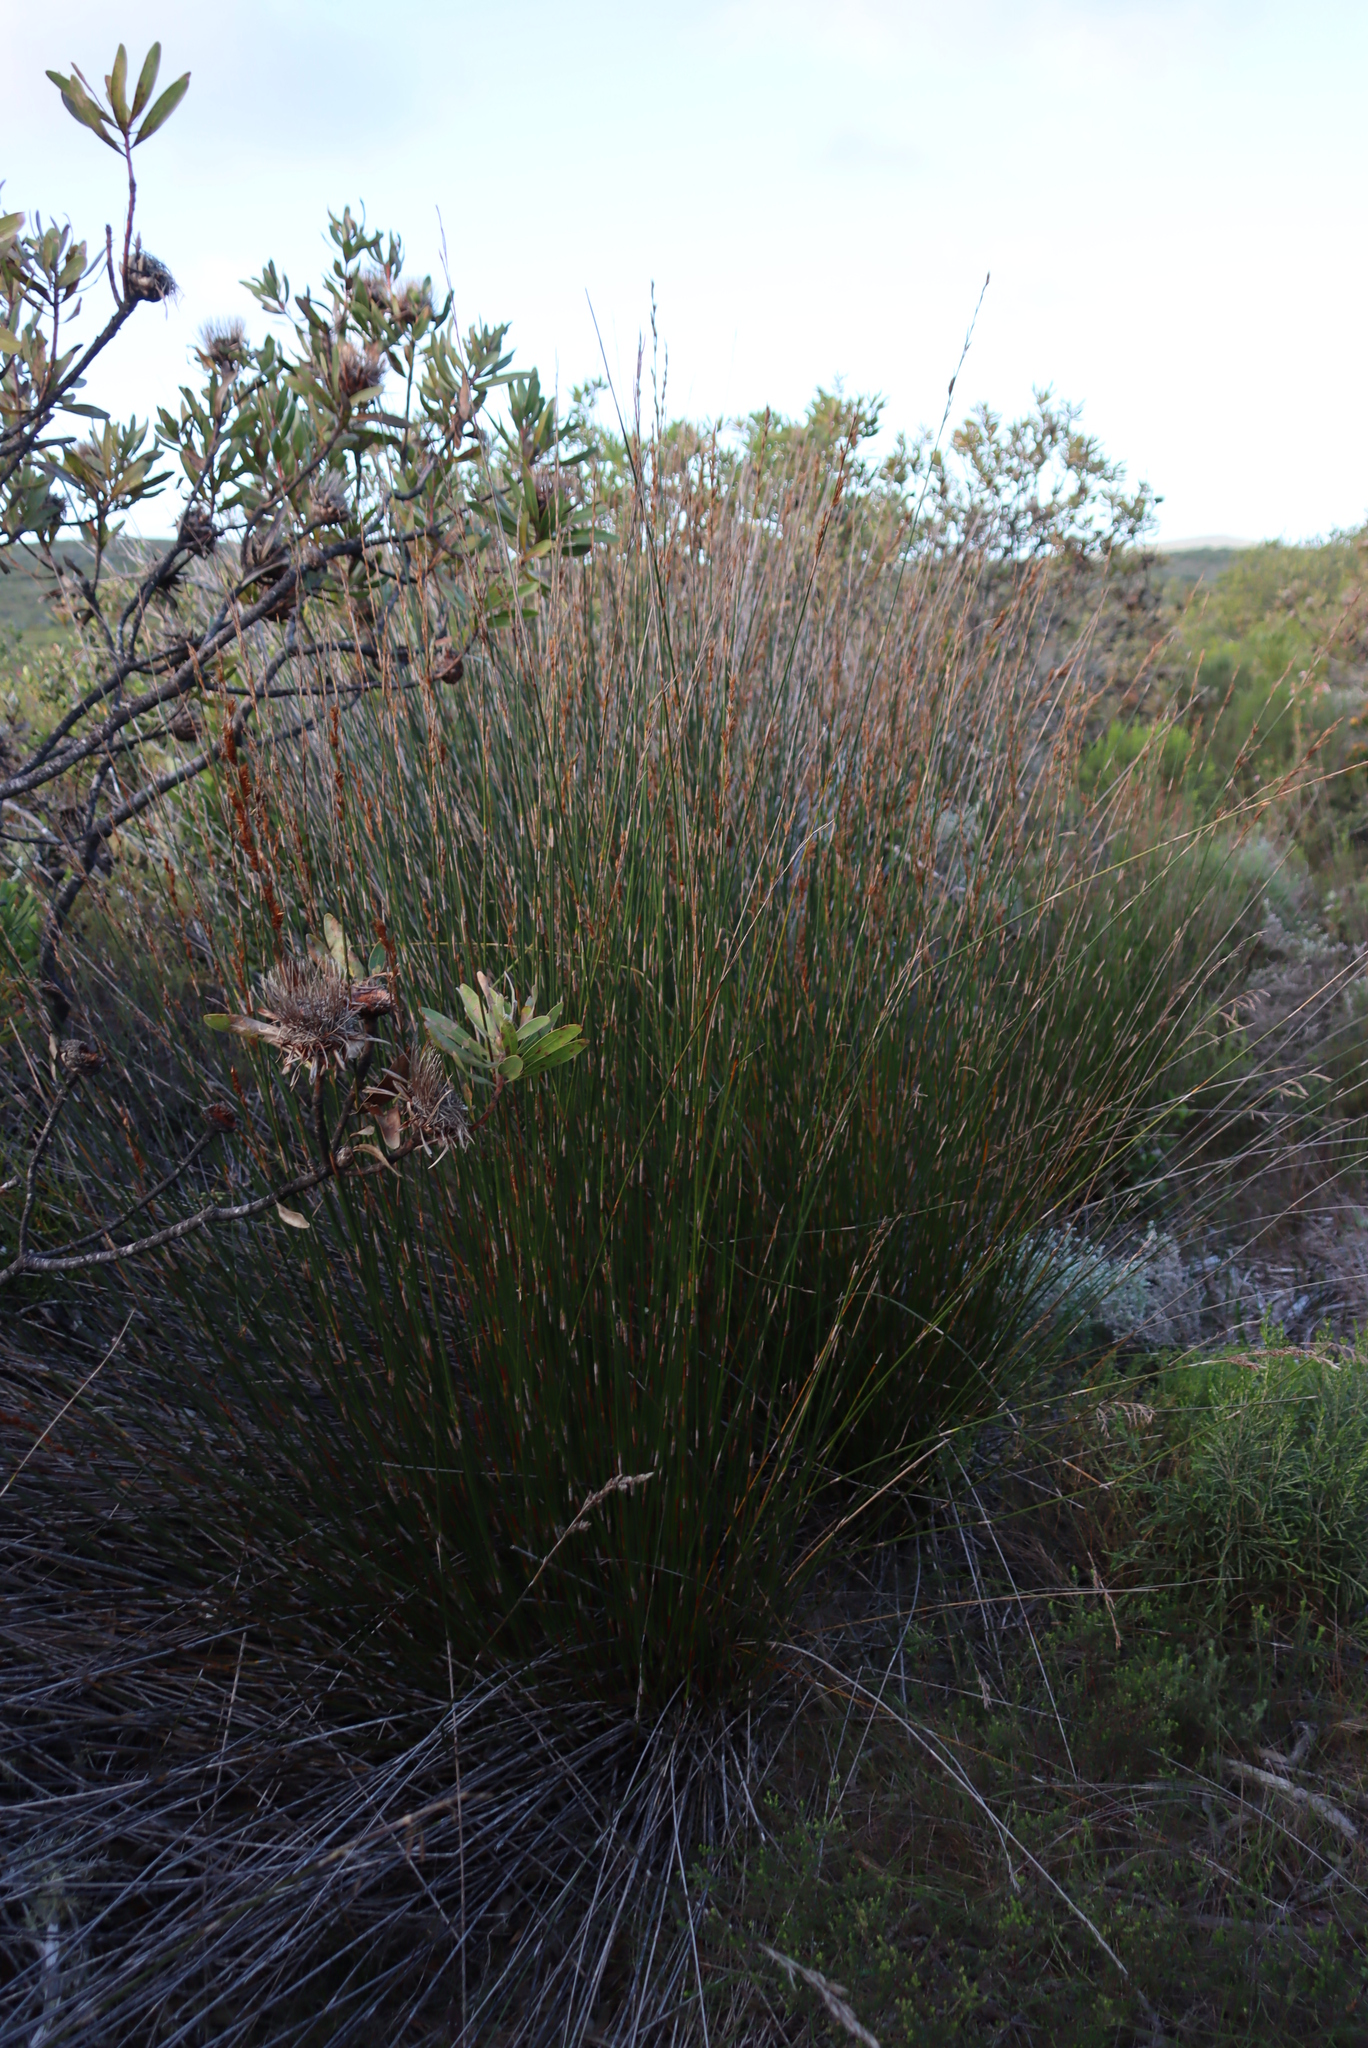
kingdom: Plantae
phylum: Tracheophyta
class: Liliopsida
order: Poales
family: Restionaceae
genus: Thamnochortus
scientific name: Thamnochortus insignis
